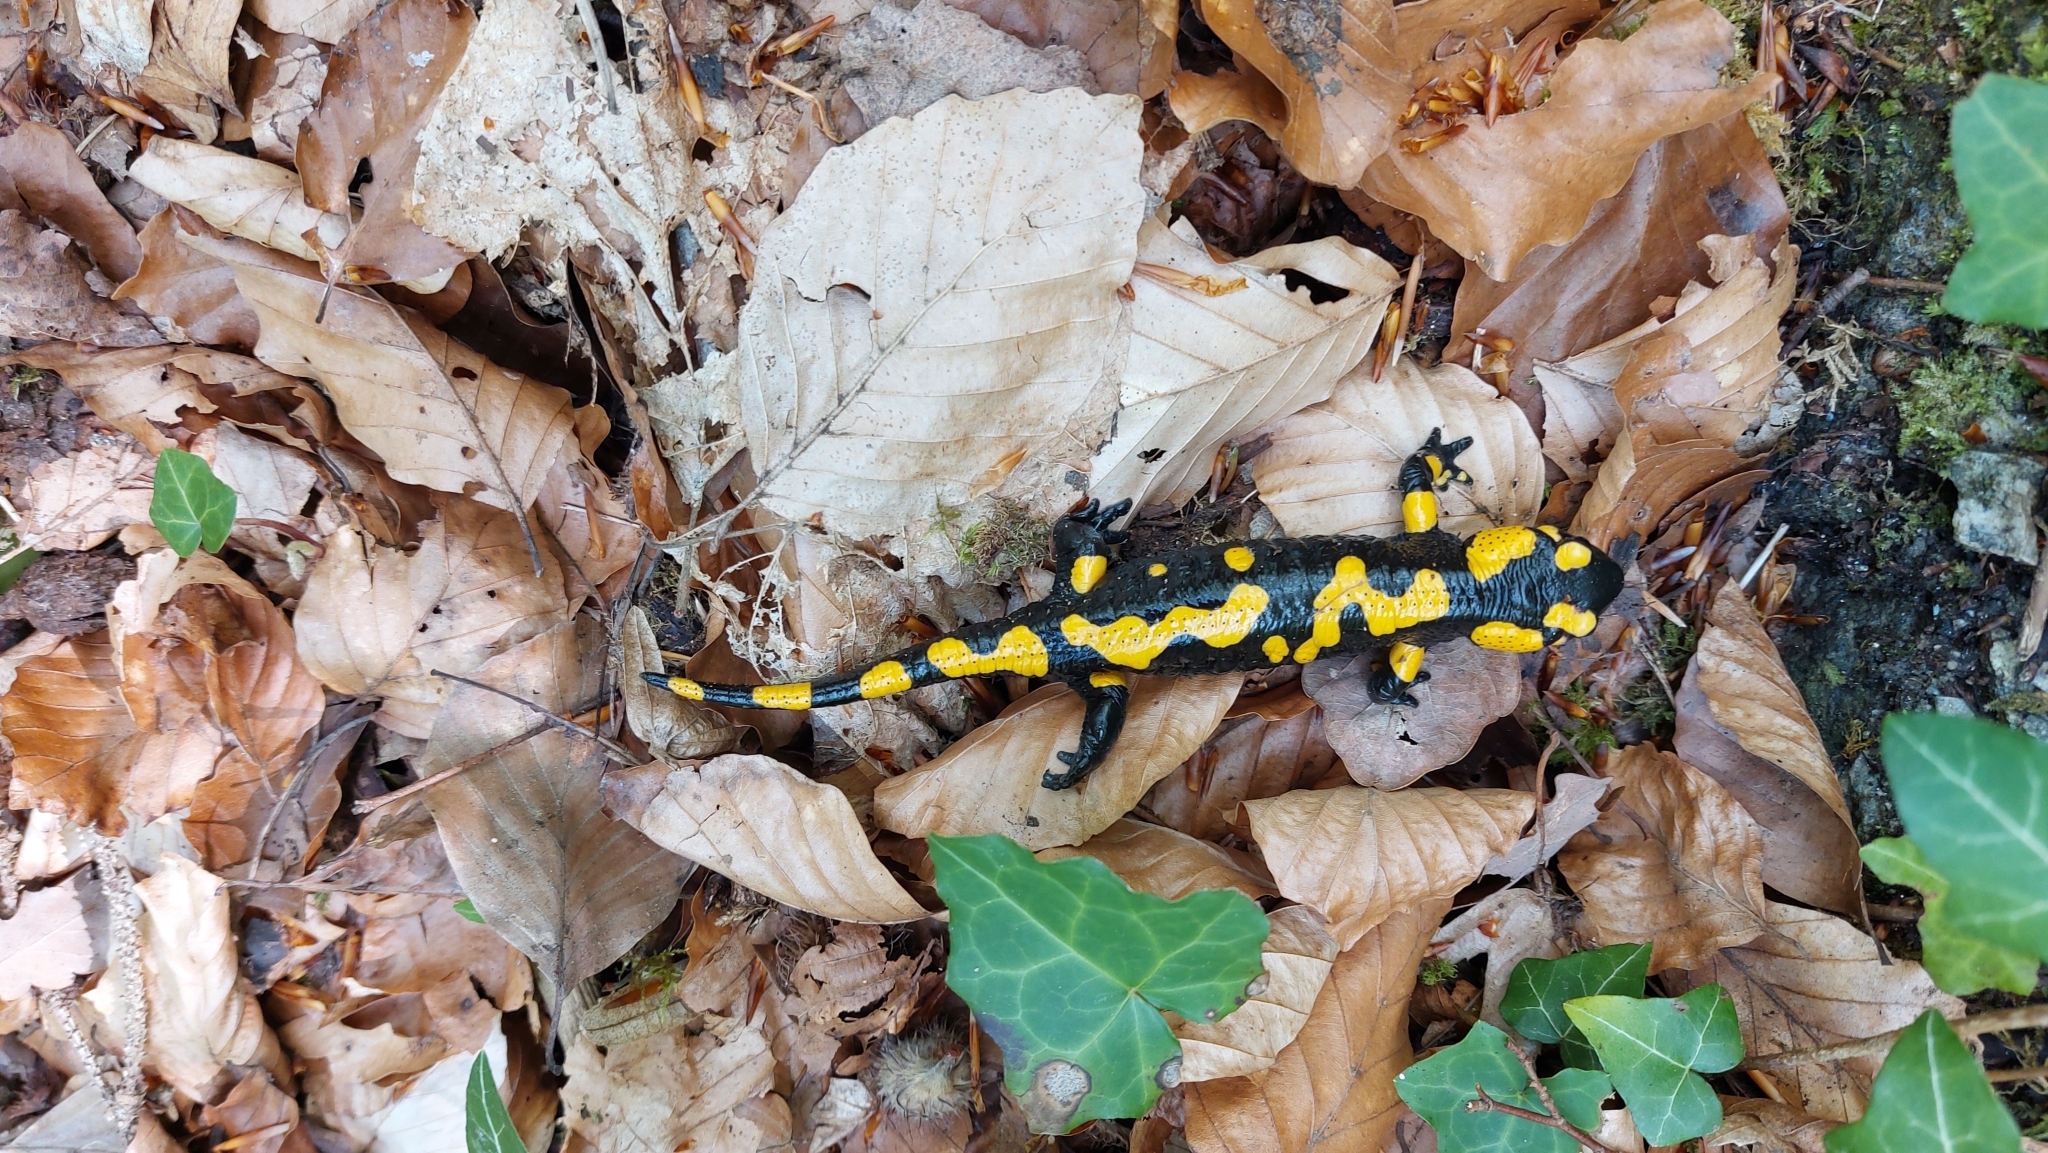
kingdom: Animalia
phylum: Chordata
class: Amphibia
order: Caudata
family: Salamandridae
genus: Salamandra
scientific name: Salamandra salamandra
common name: Fire salamander
